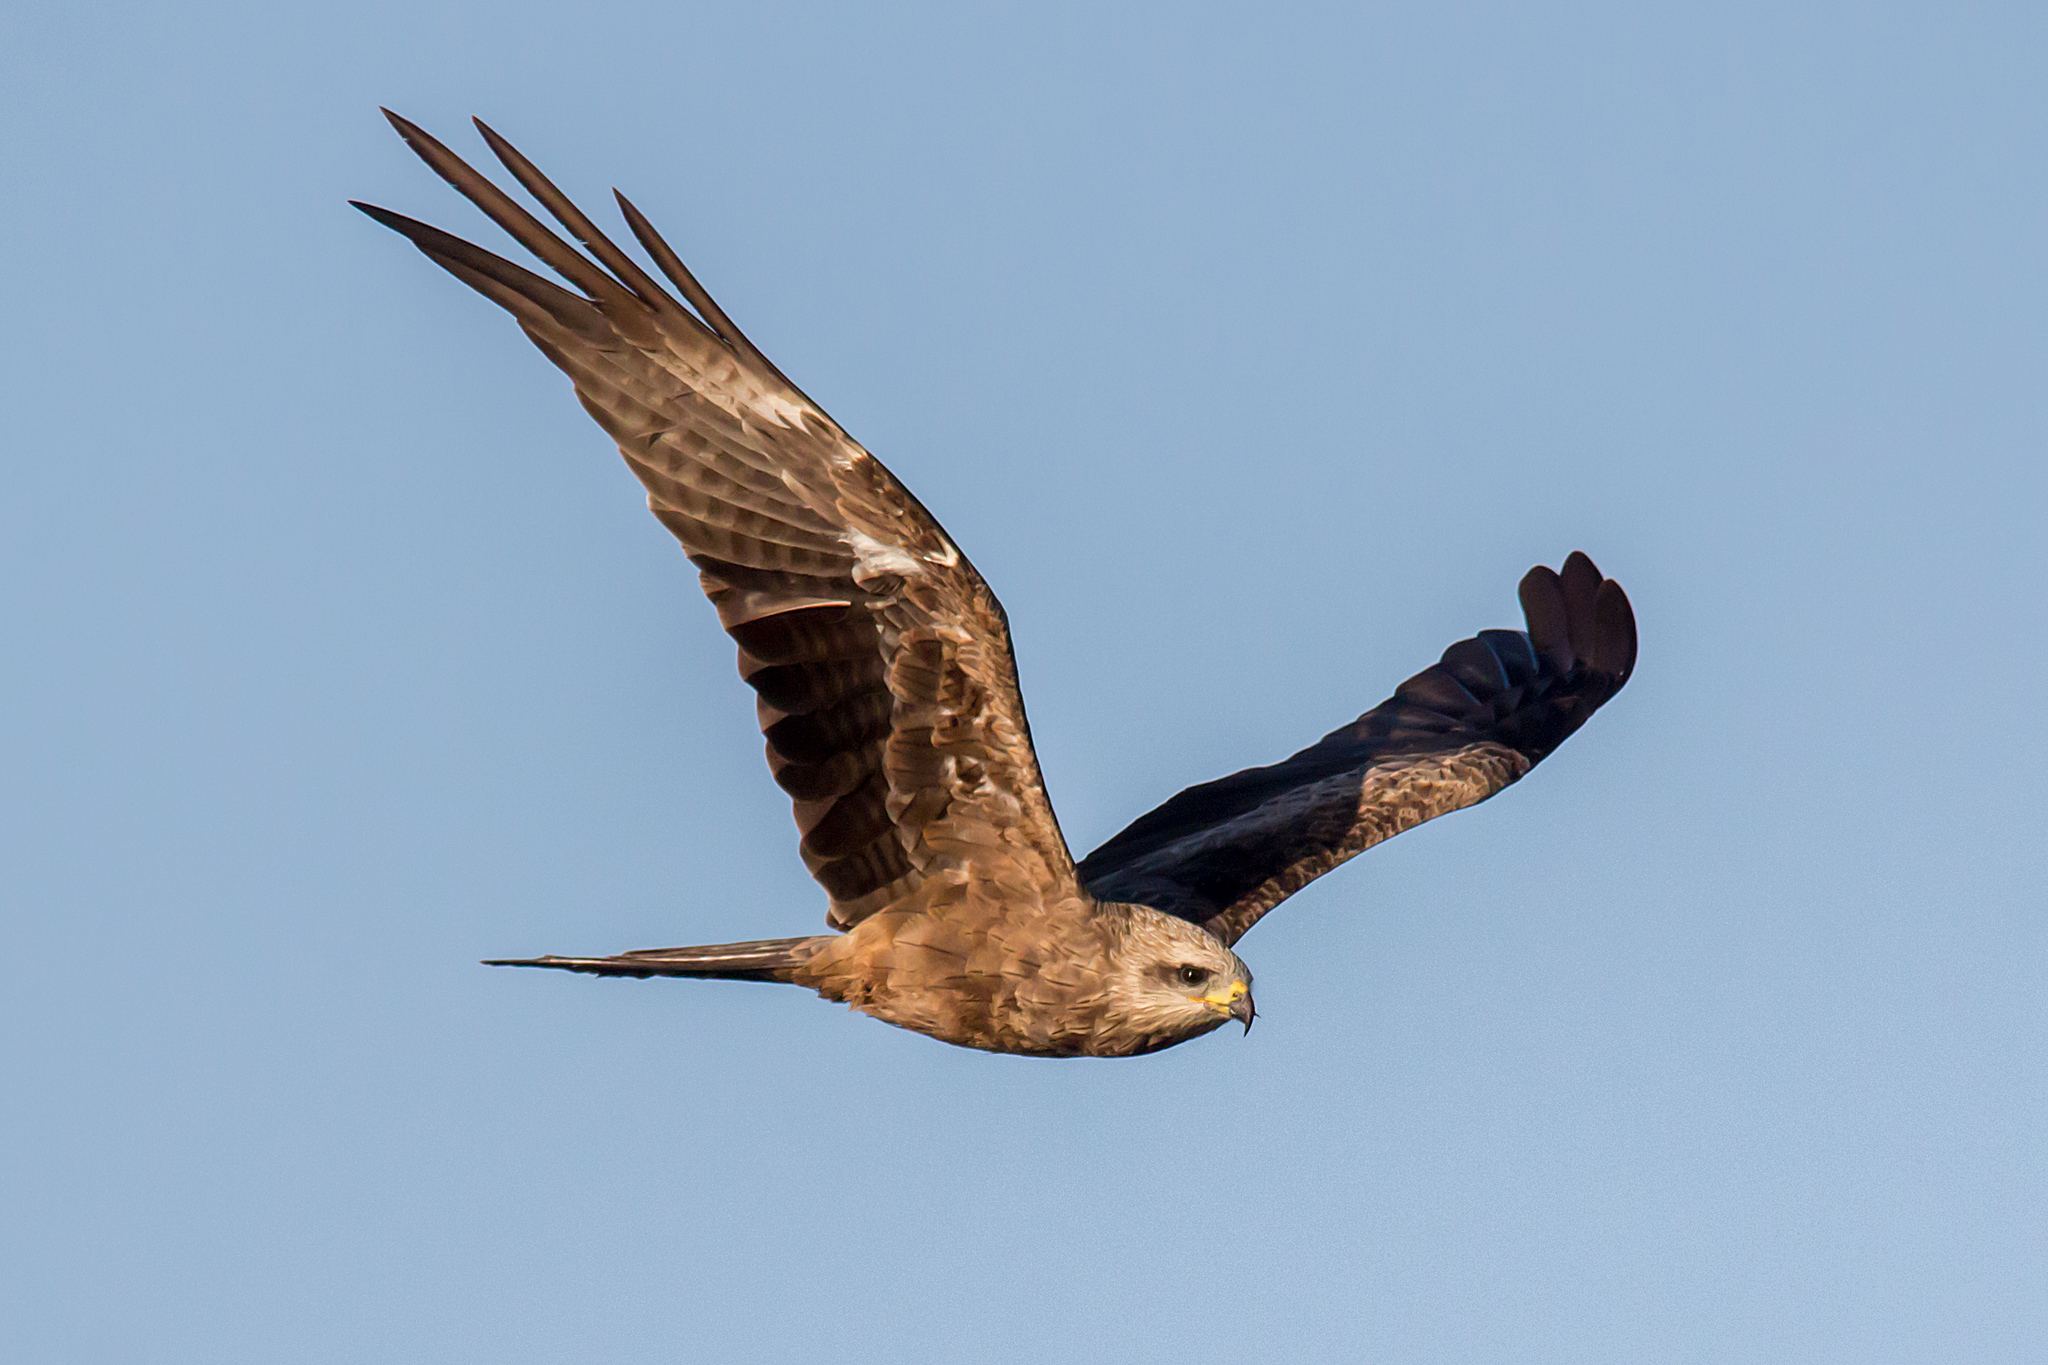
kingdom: Animalia
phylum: Chordata
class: Aves
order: Accipitriformes
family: Accipitridae
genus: Milvus
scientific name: Milvus migrans
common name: Black kite
